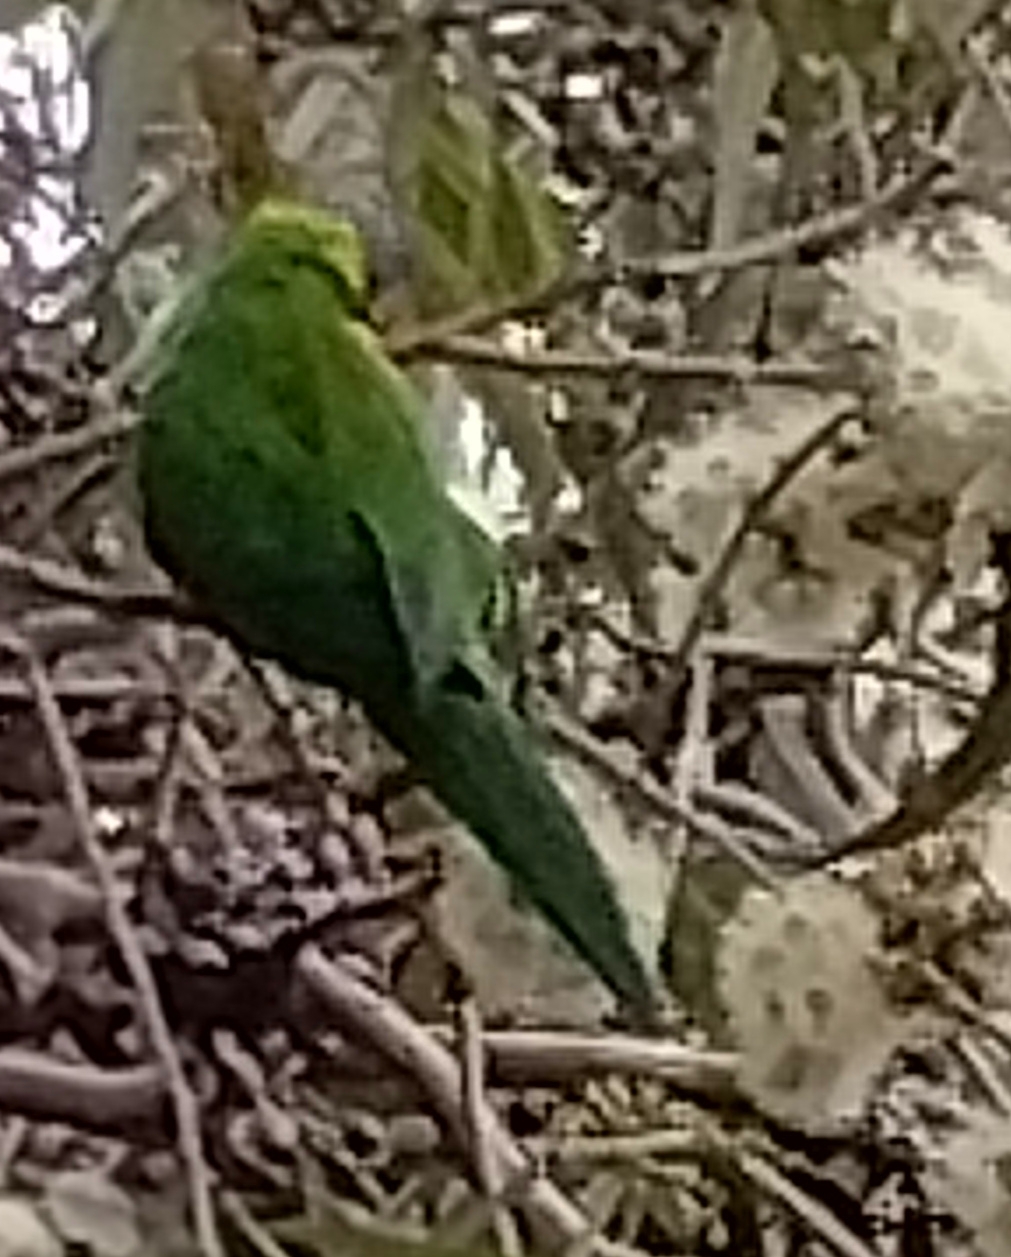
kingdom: Animalia
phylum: Chordata
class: Aves
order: Psittaciformes
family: Psittacidae
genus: Trichoglossus
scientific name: Trichoglossus haematodus
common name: Coconut lorikeet
